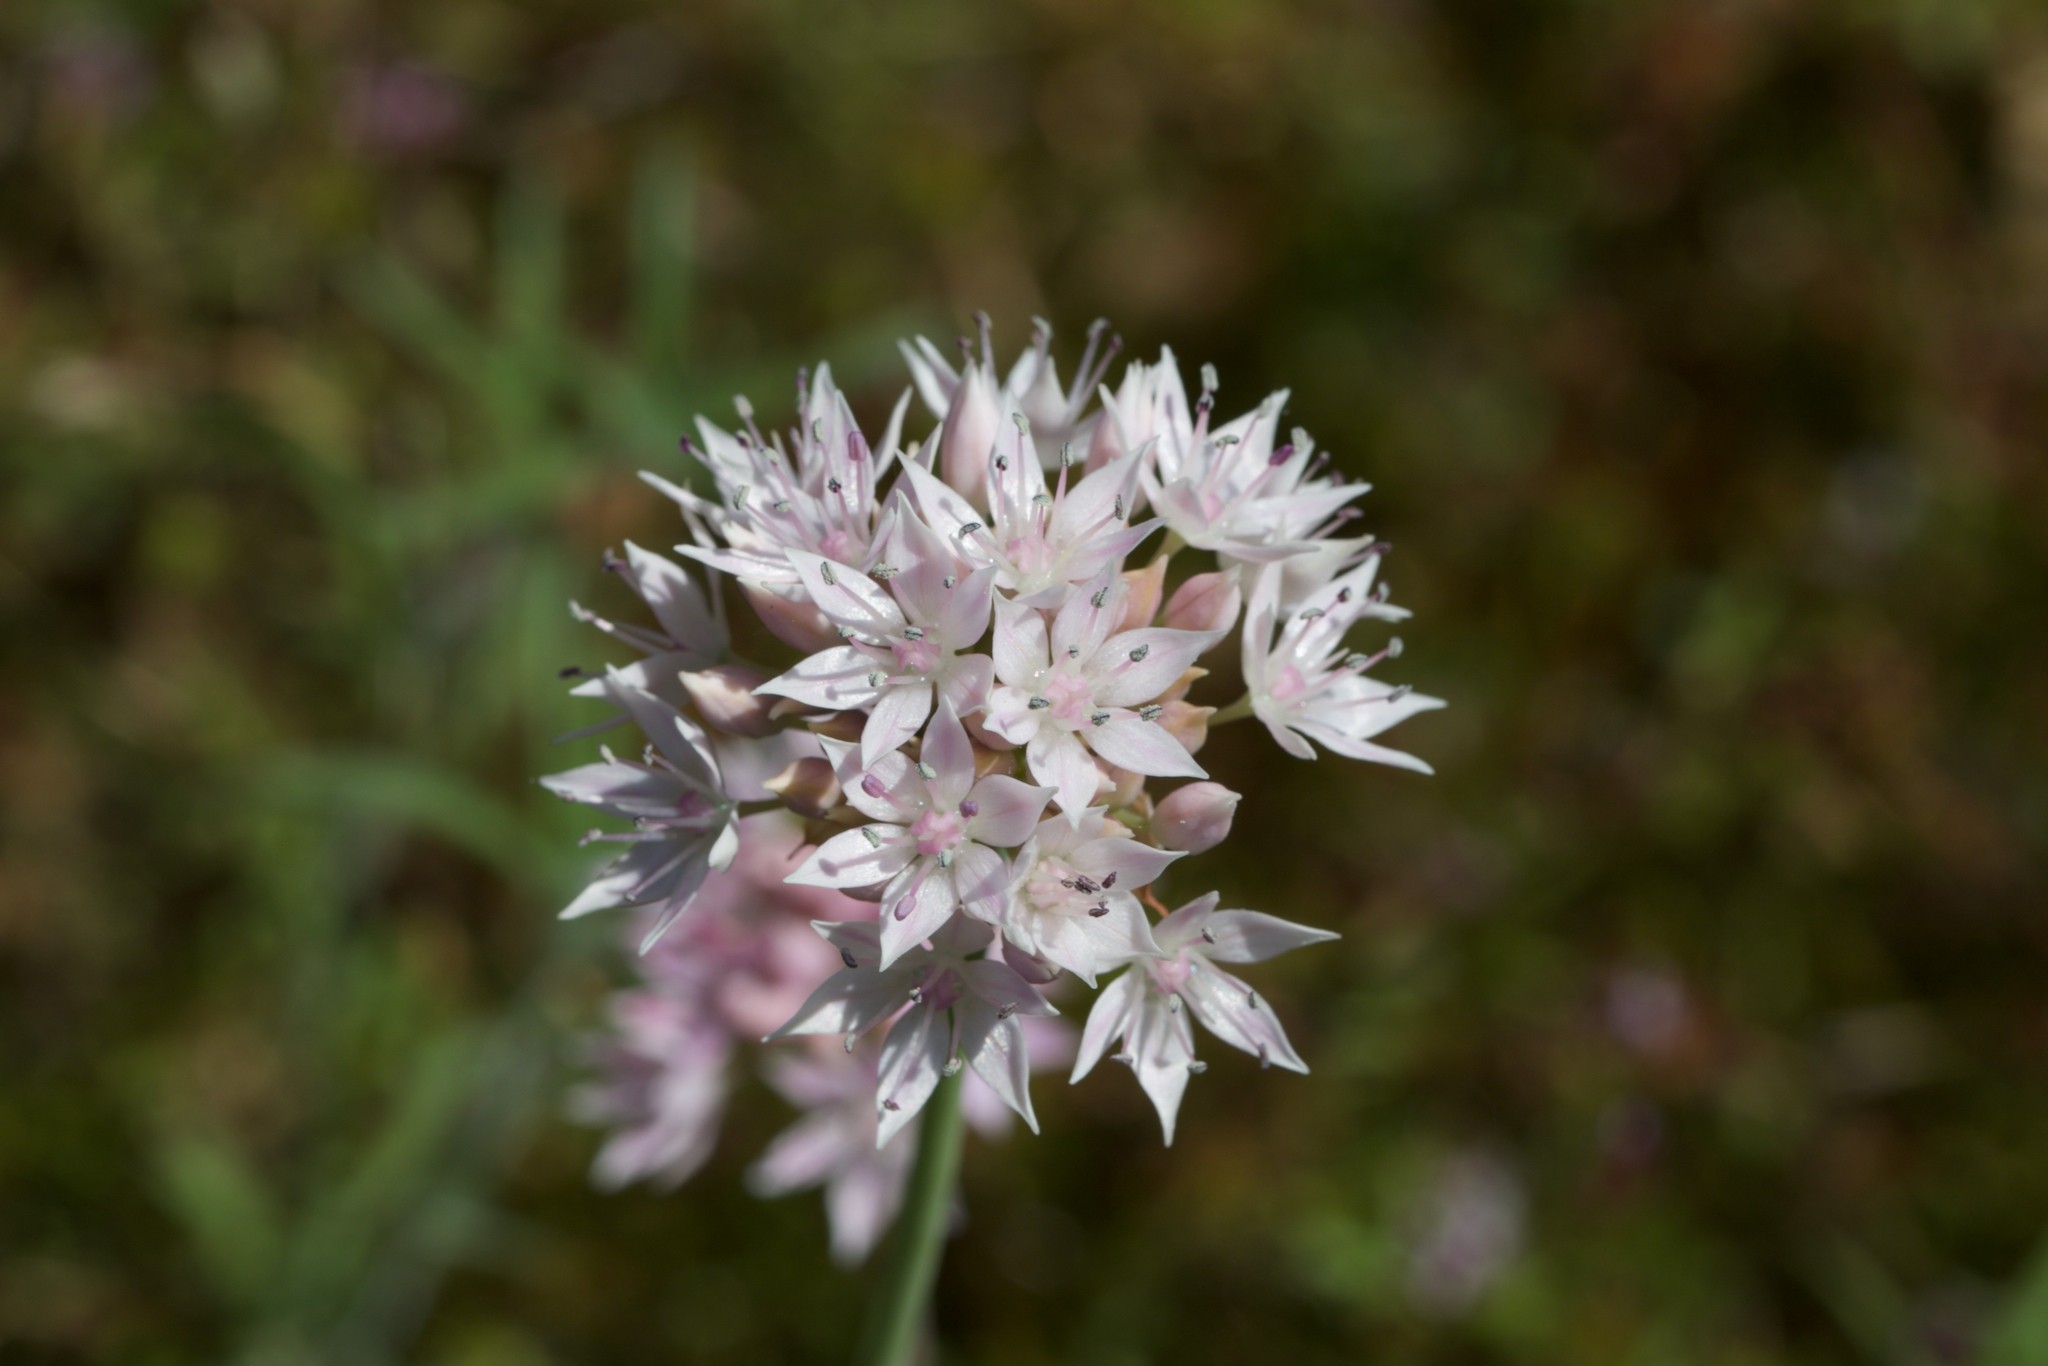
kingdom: Plantae
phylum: Tracheophyta
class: Liliopsida
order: Asparagales
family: Amaryllidaceae
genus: Allium
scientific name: Allium amplectens
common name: Narrow-leaved onion
